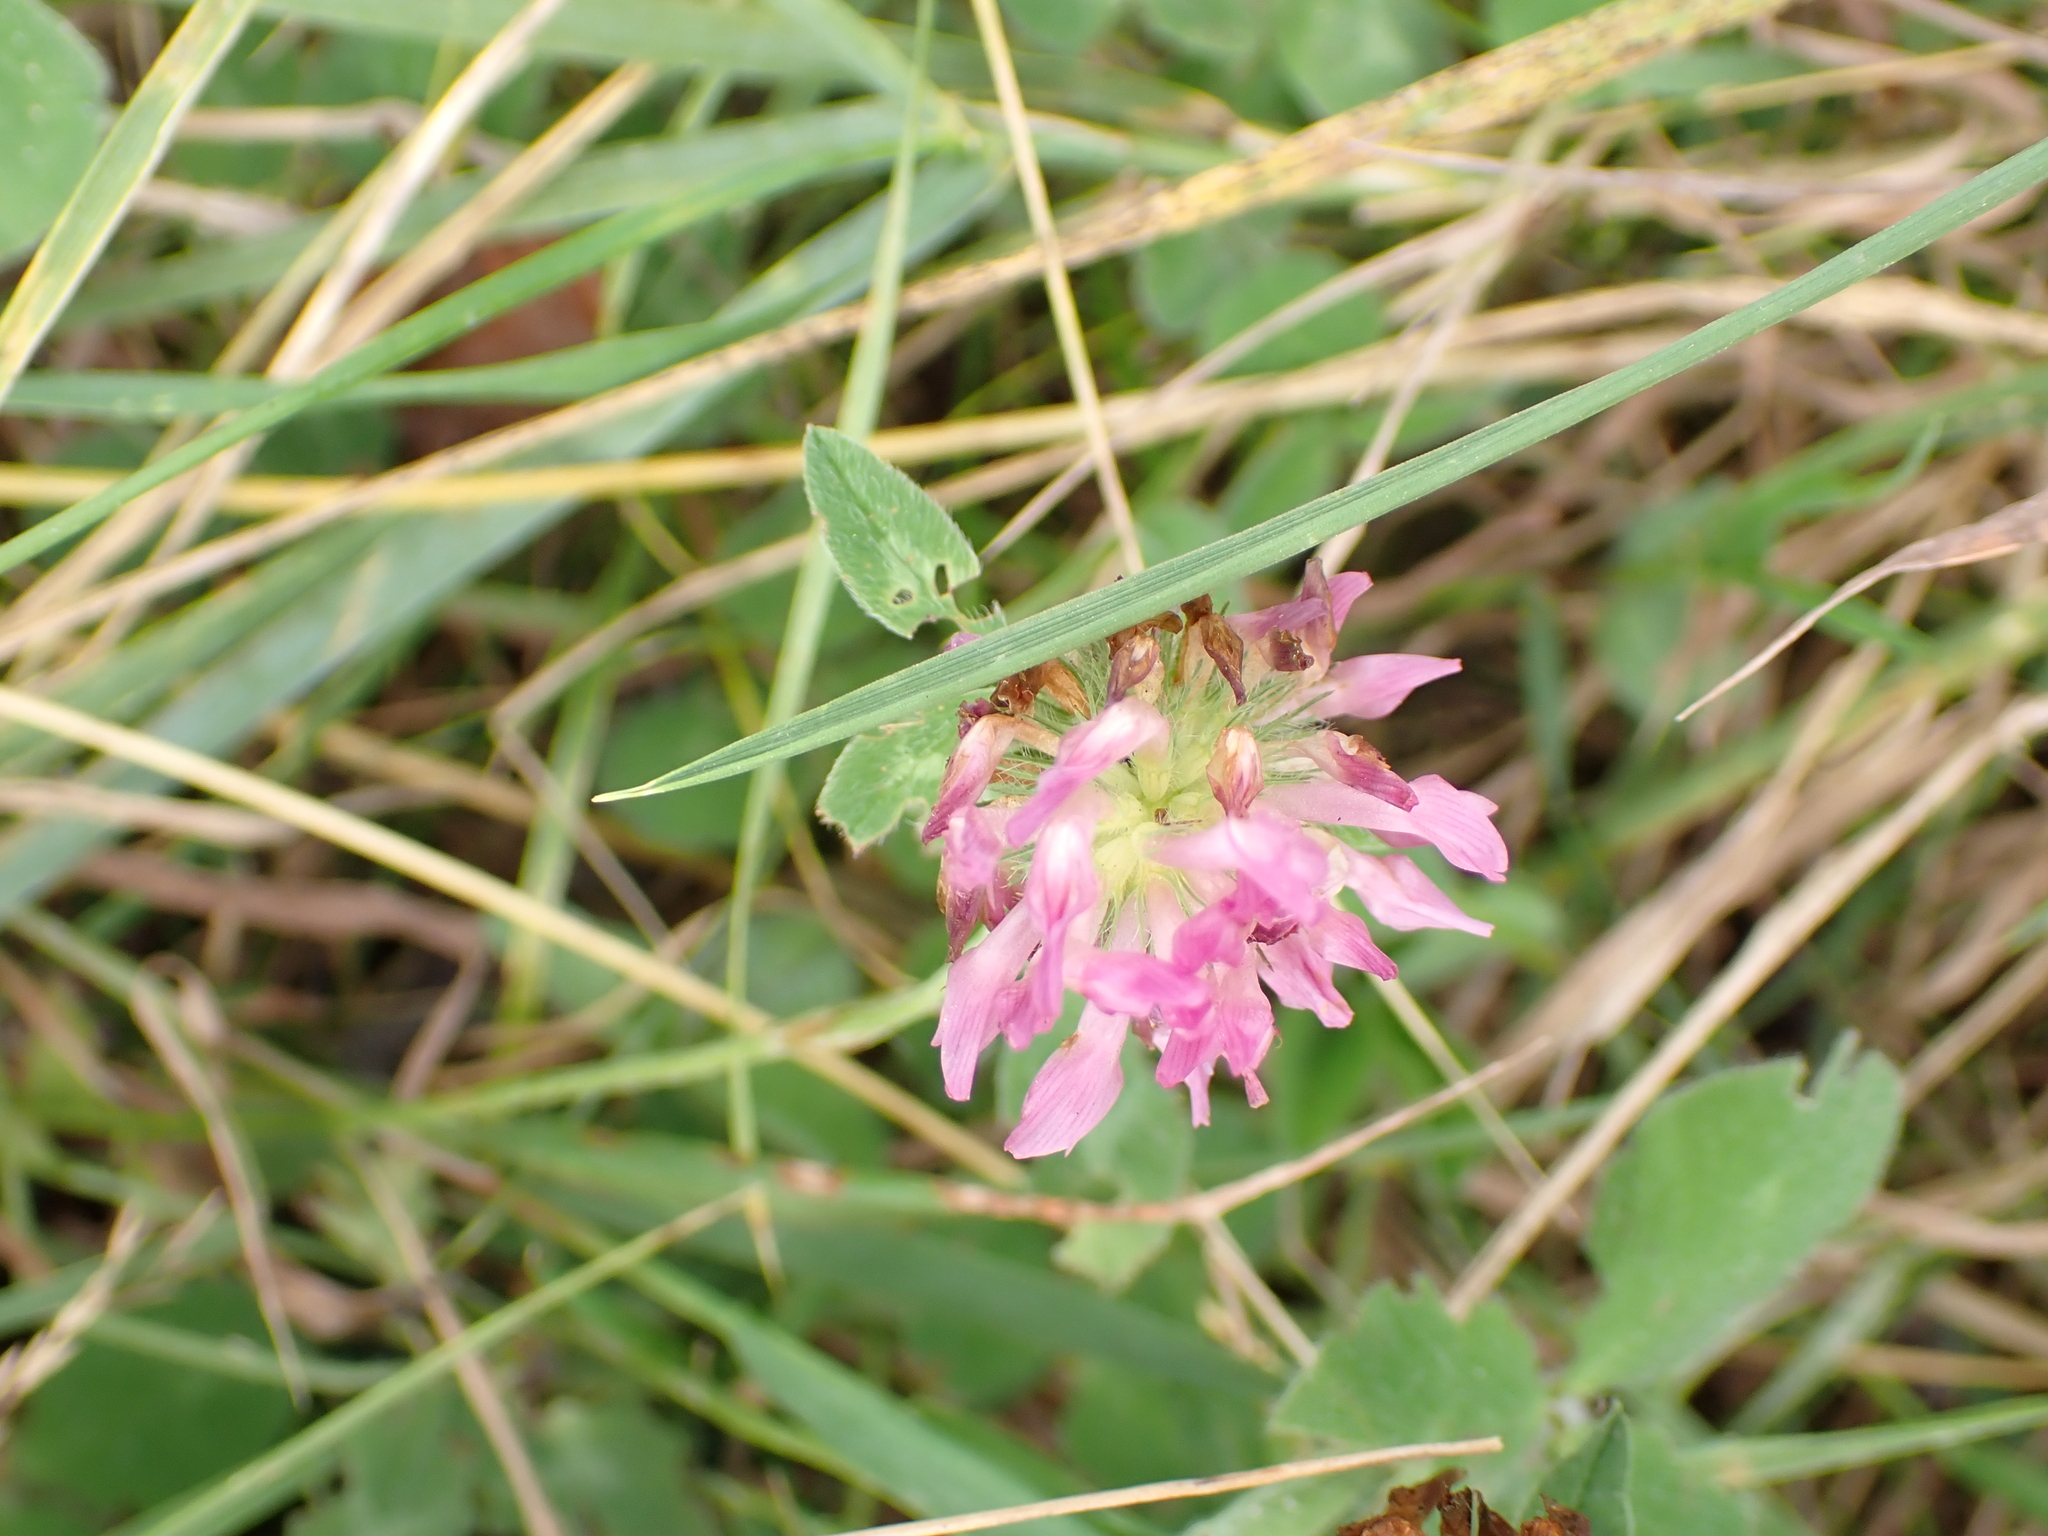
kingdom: Plantae
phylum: Tracheophyta
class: Magnoliopsida
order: Fabales
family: Fabaceae
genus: Trifolium
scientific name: Trifolium pratense
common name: Red clover
